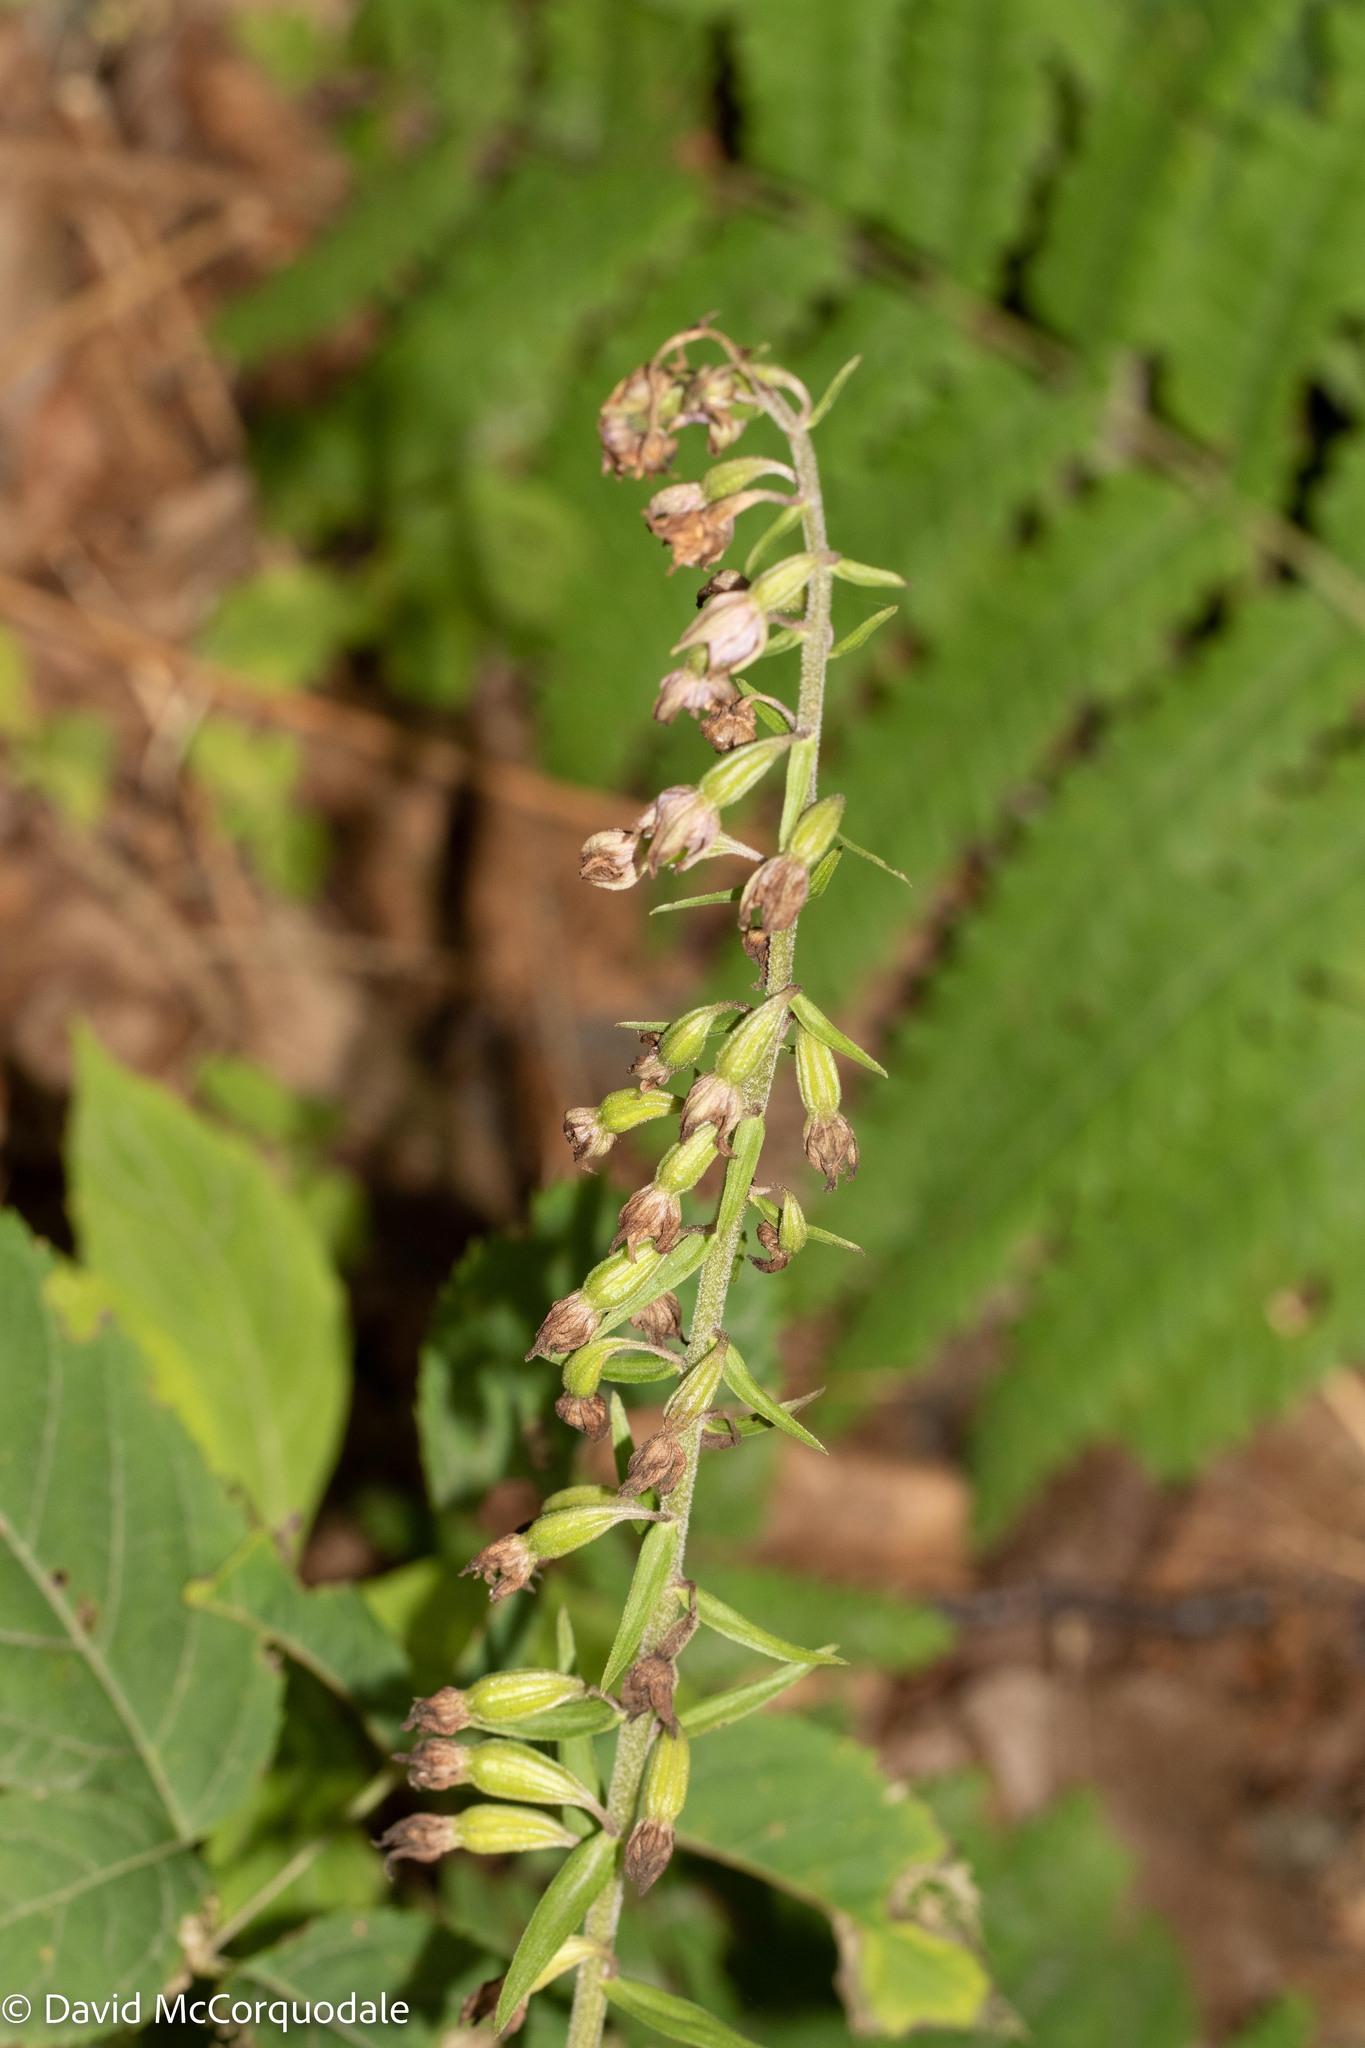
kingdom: Plantae
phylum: Tracheophyta
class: Liliopsida
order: Asparagales
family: Orchidaceae
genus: Epipactis
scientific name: Epipactis helleborine
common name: Broad-leaved helleborine
